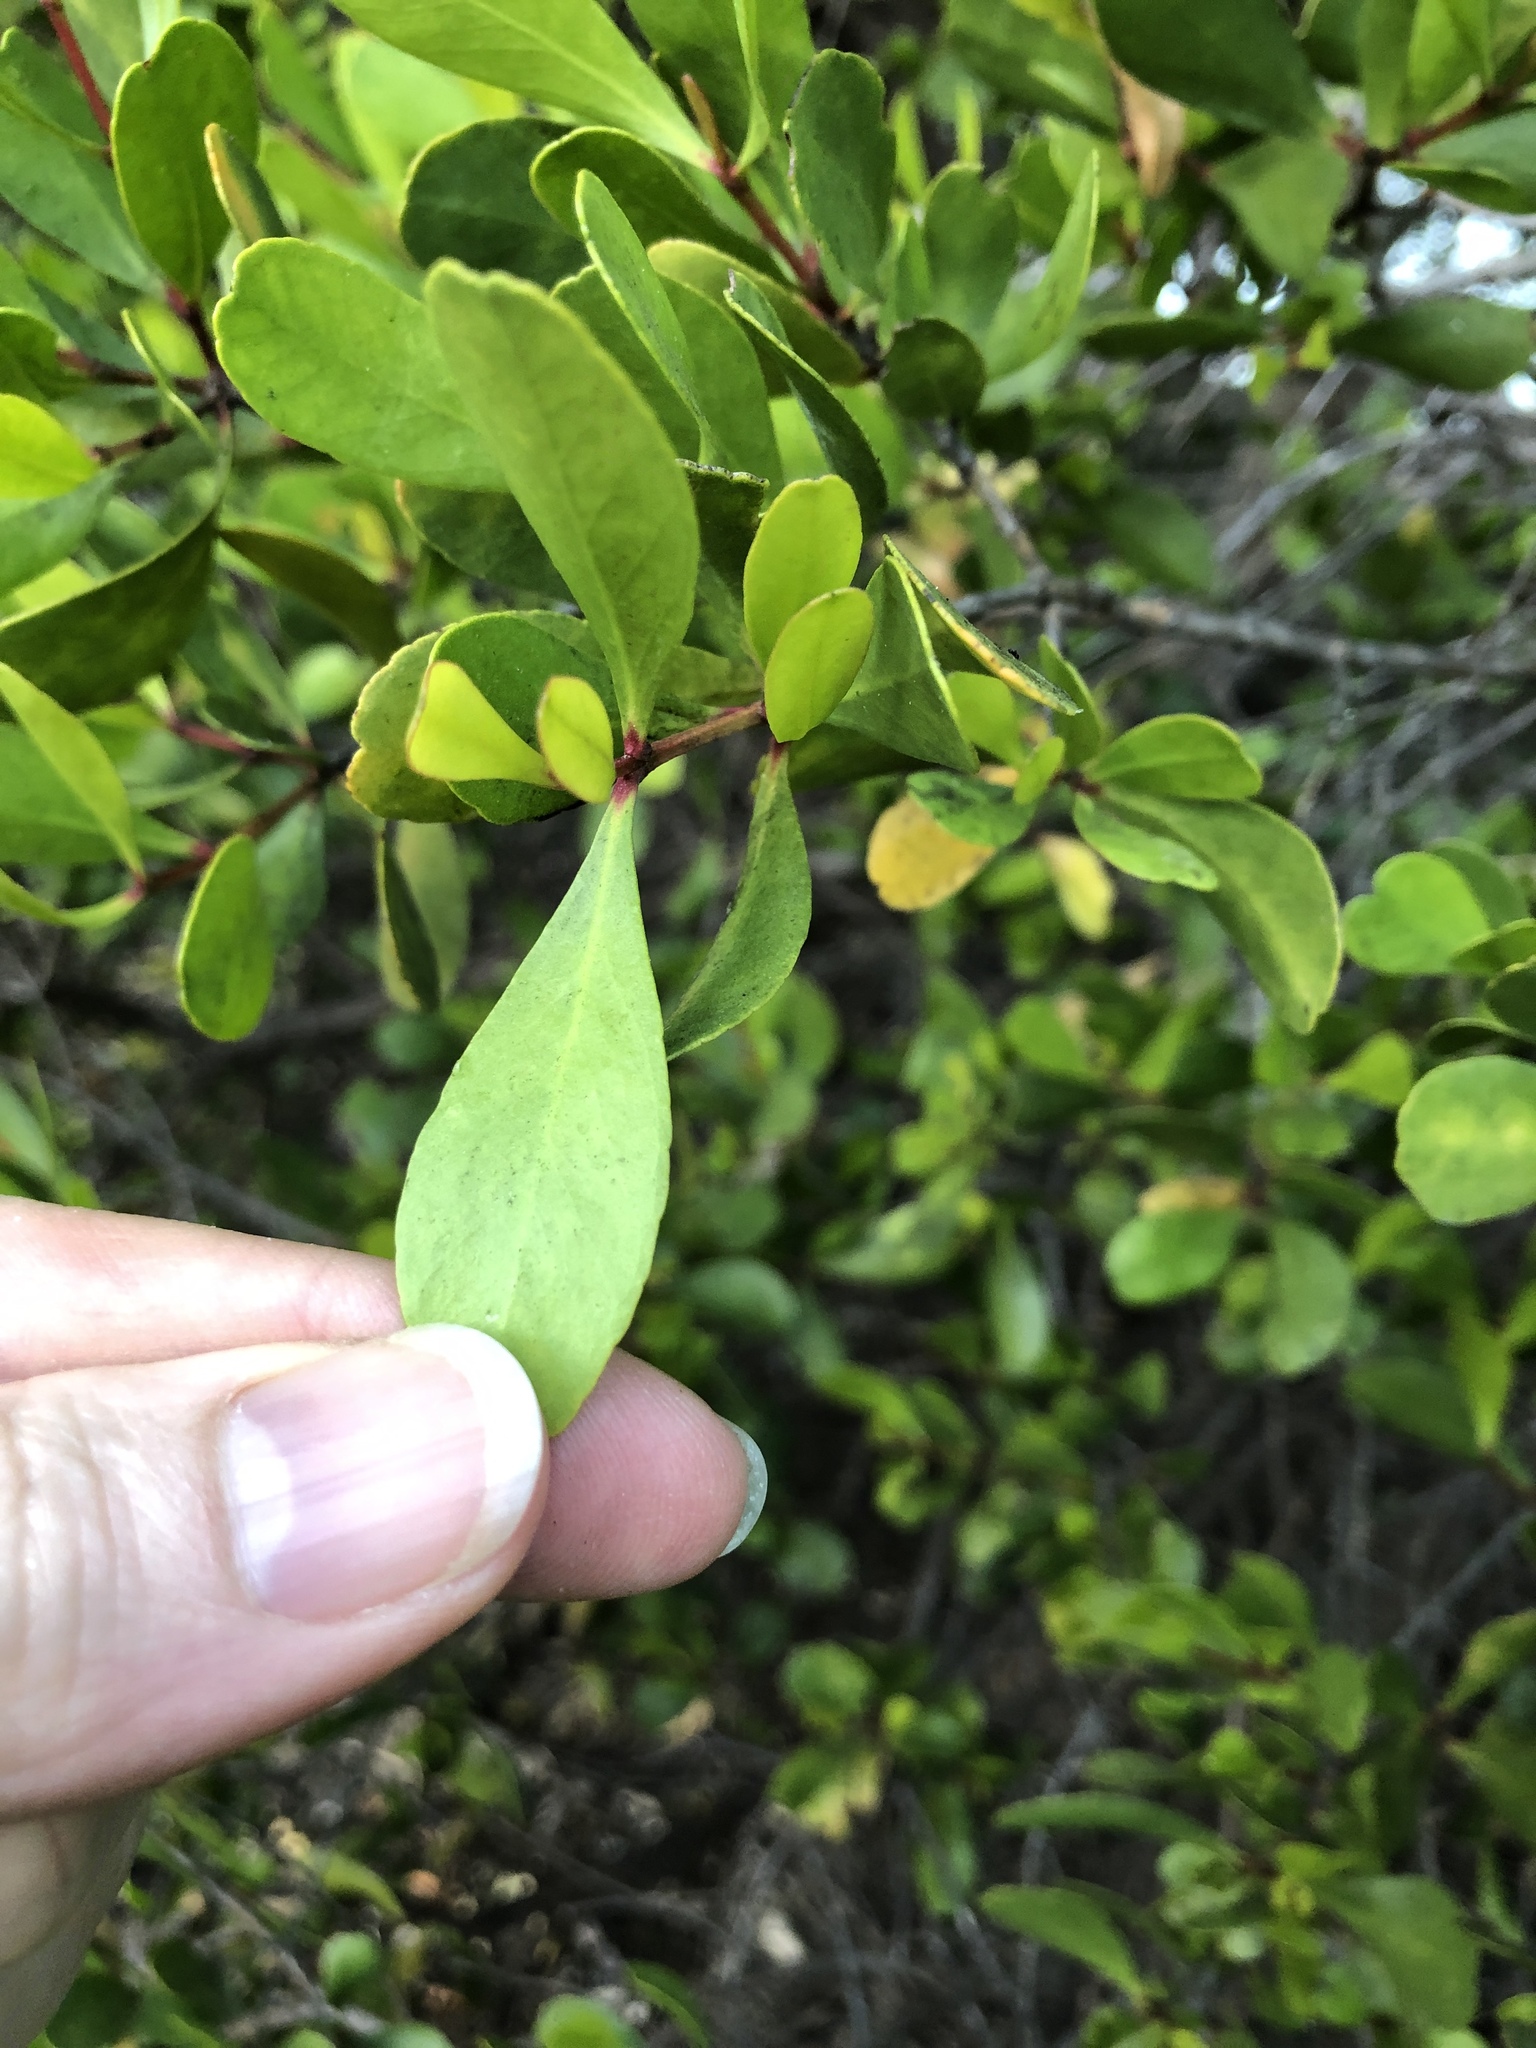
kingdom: Plantae
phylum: Tracheophyta
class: Magnoliopsida
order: Myrtales
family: Myrtaceae
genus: Osbornia
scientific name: Osbornia octodonta
